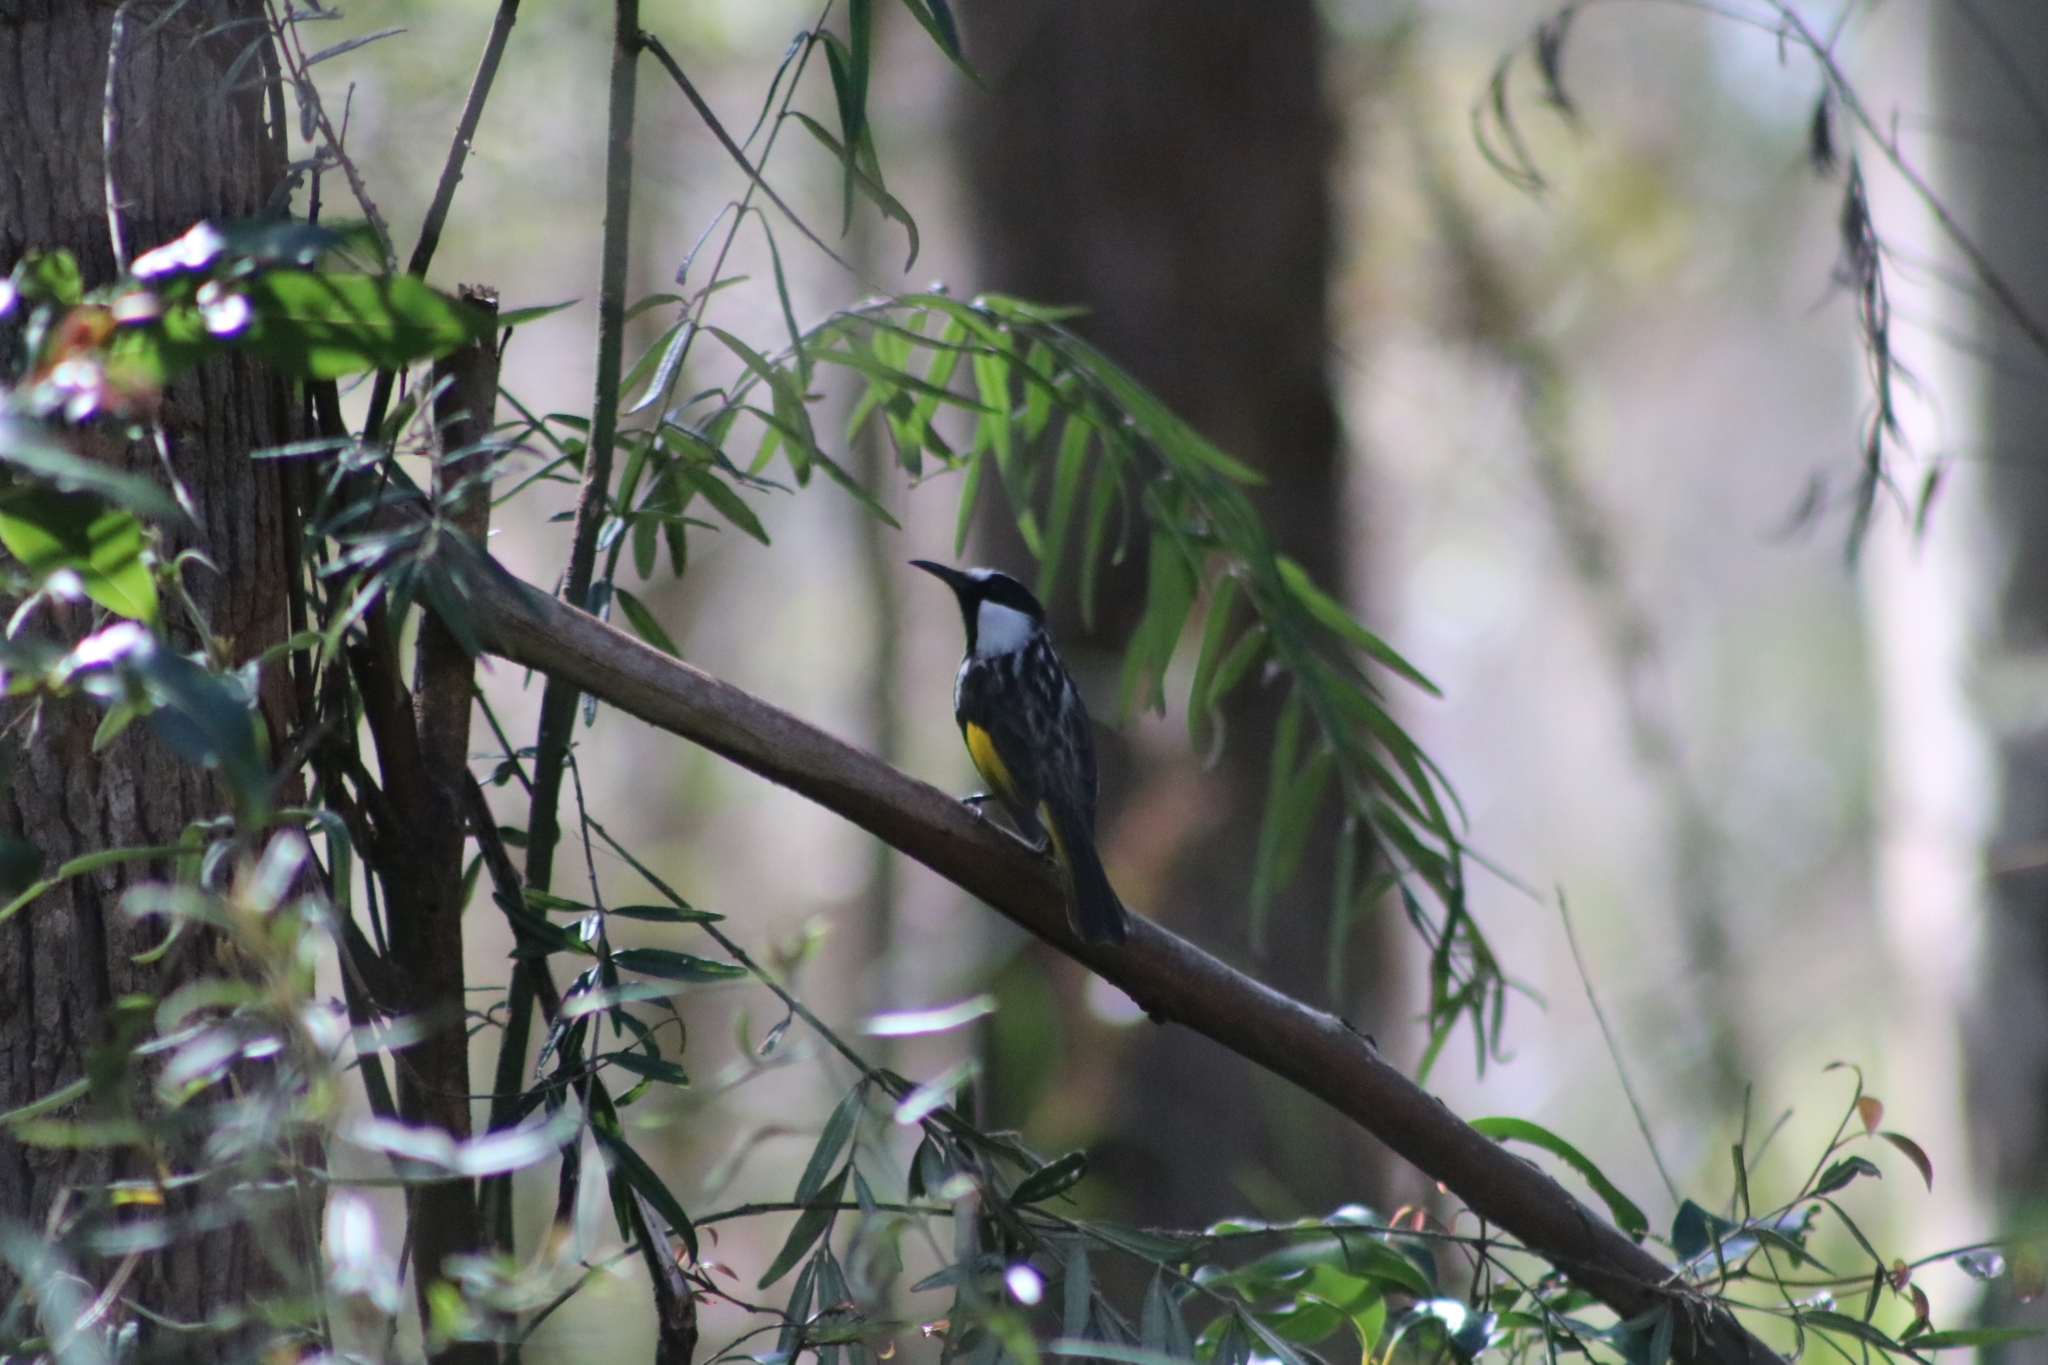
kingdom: Animalia
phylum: Chordata
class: Aves
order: Passeriformes
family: Meliphagidae
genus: Phylidonyris
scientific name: Phylidonyris niger
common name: White-cheeked honeyeater
